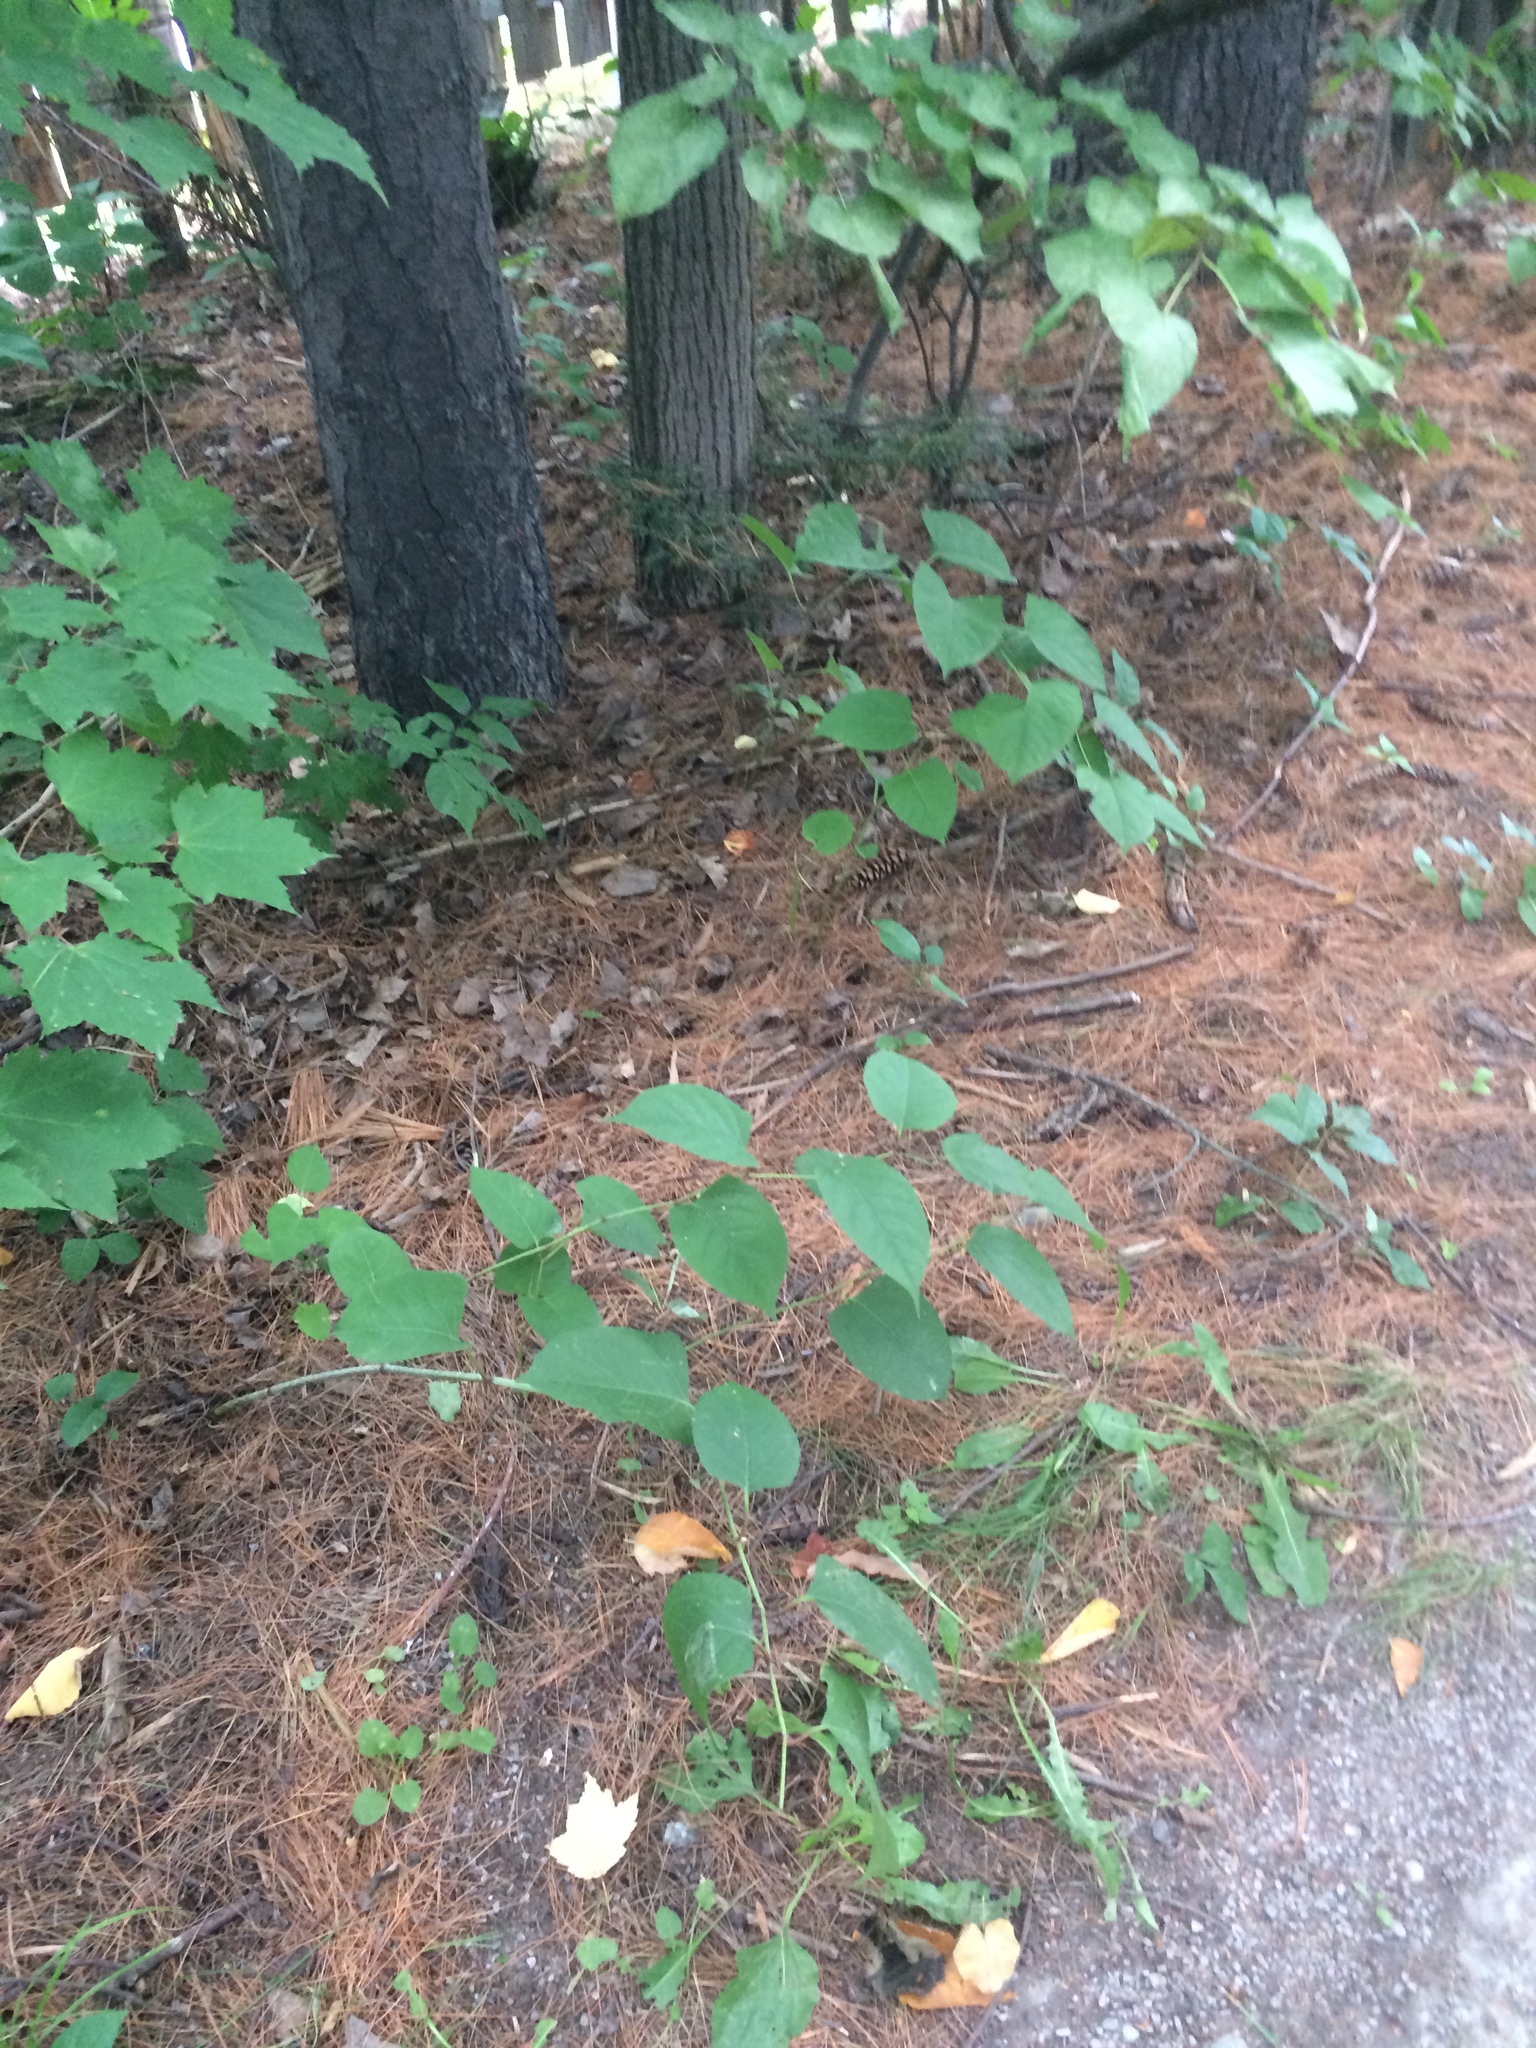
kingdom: Plantae
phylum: Tracheophyta
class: Magnoliopsida
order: Caryophyllales
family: Polygonaceae
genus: Reynoutria
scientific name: Reynoutria japonica
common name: Japanese knotweed
